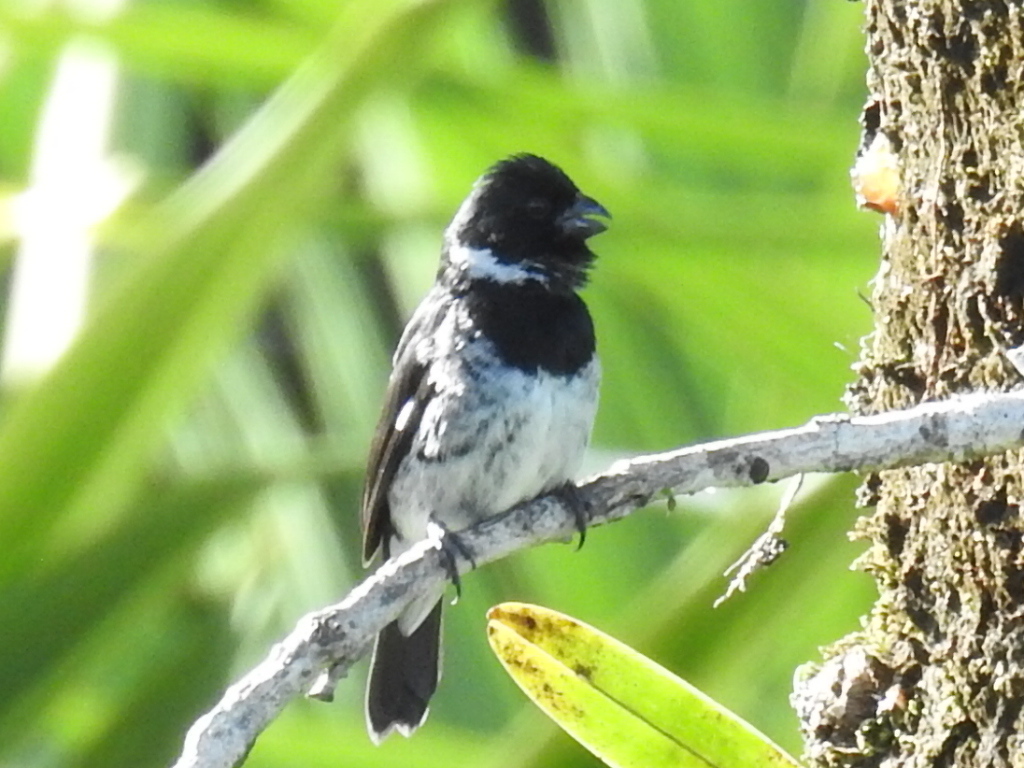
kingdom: Animalia
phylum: Chordata
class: Aves
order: Passeriformes
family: Thraupidae
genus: Sporophila
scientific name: Sporophila corvina
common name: Variable seedeater
